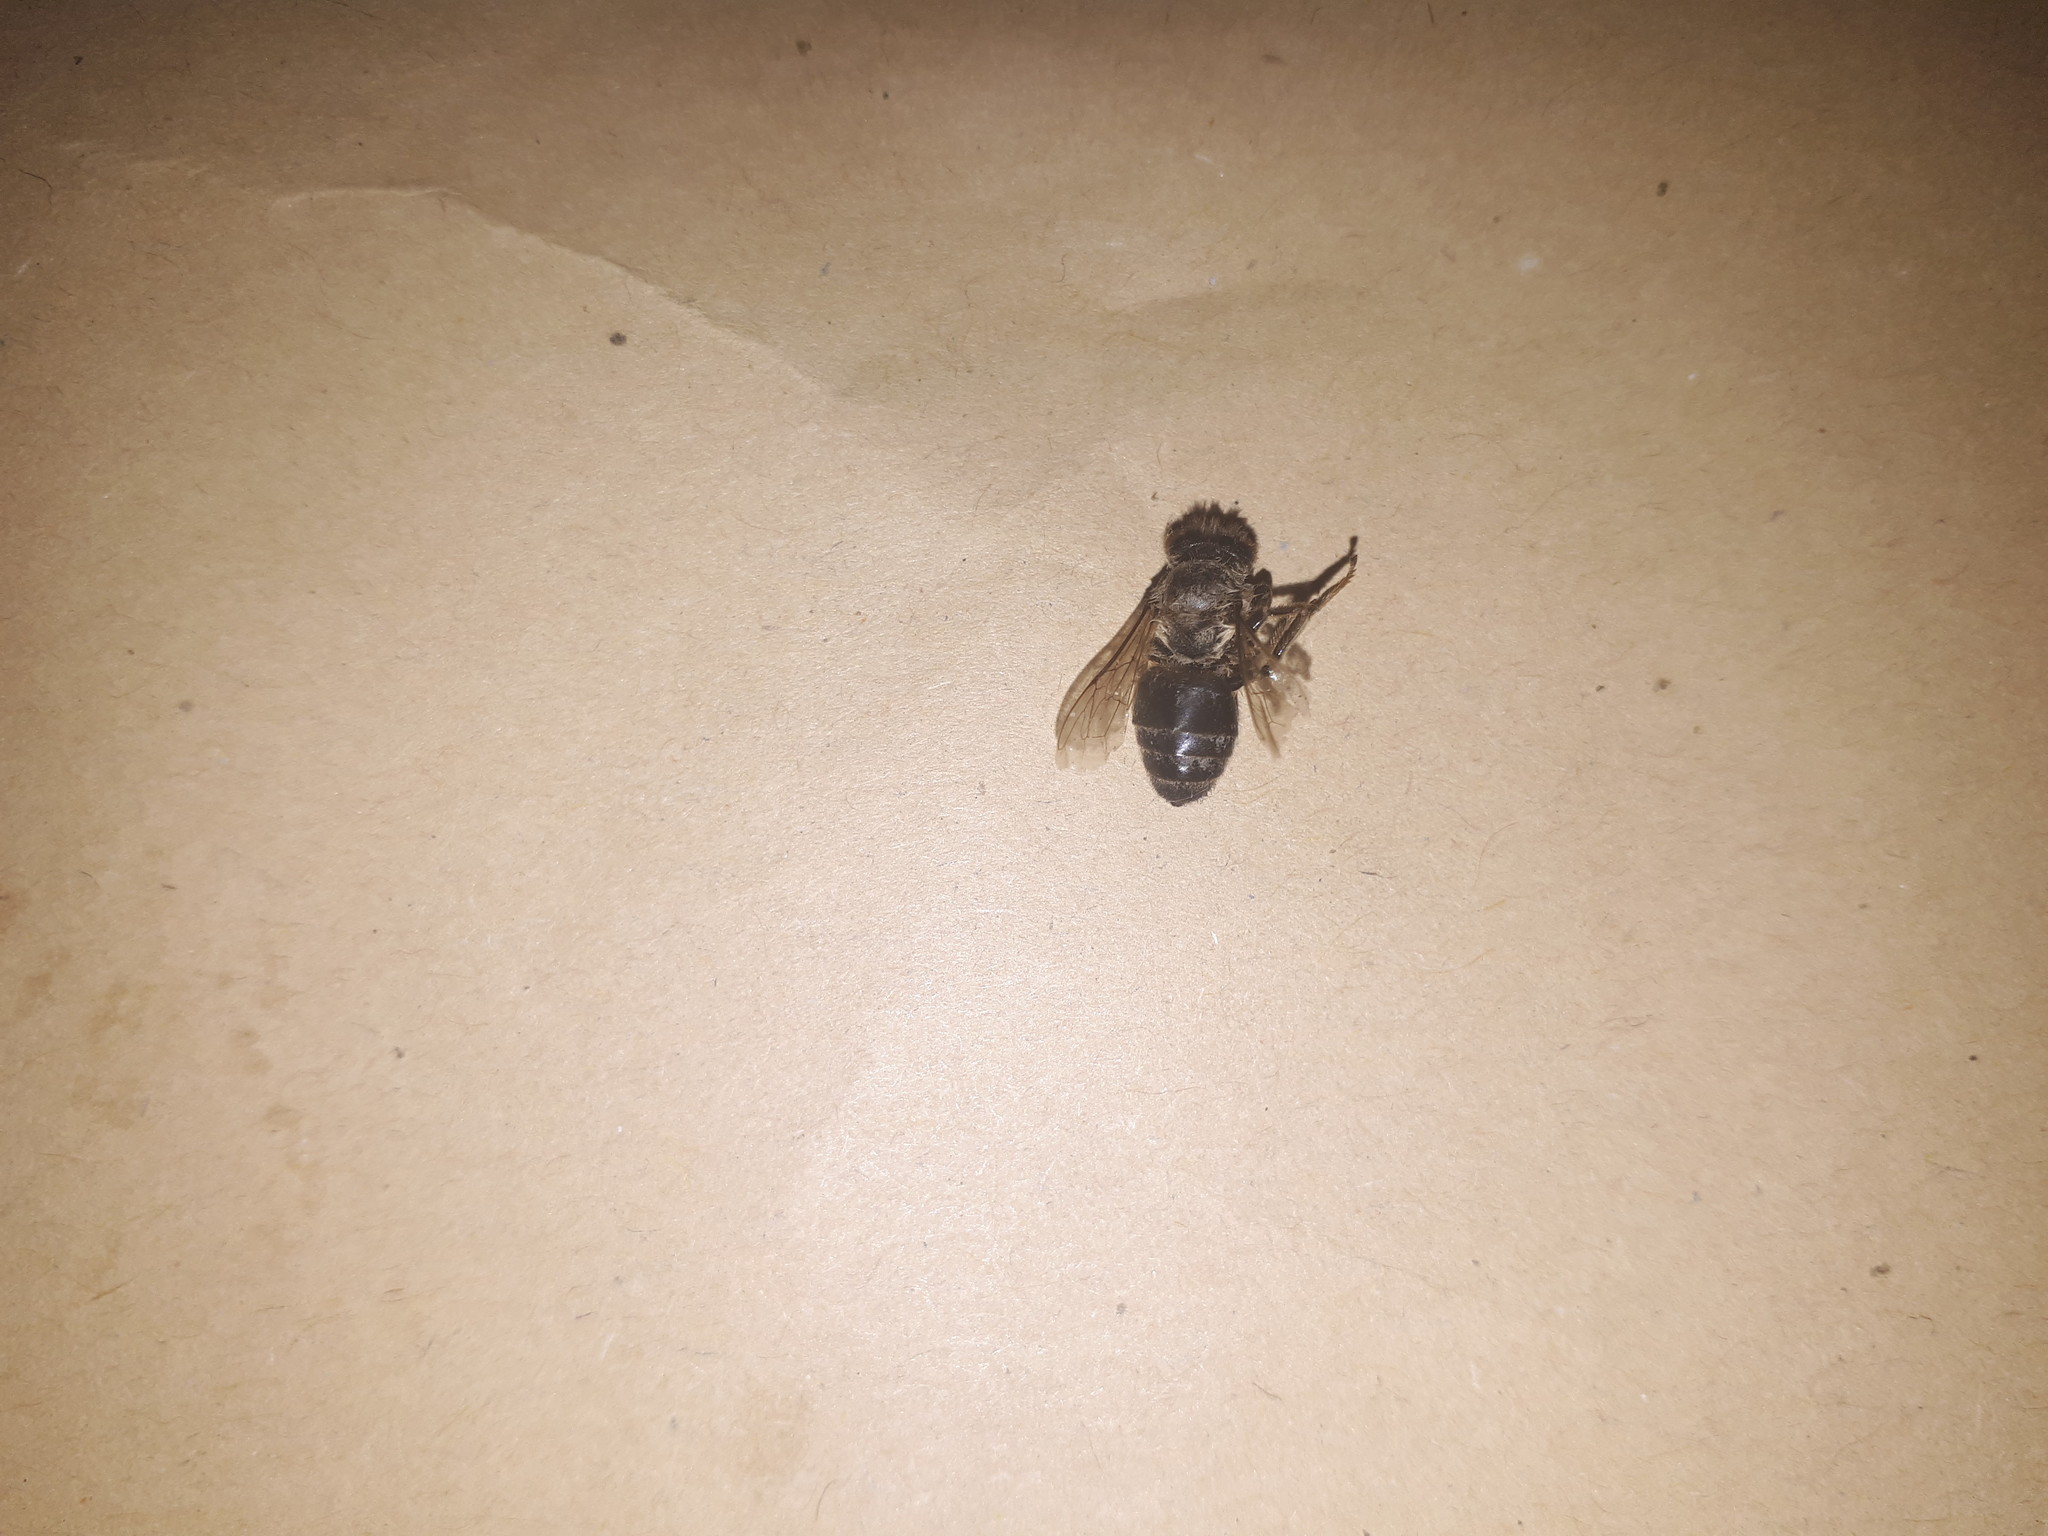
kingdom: Animalia
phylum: Arthropoda
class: Insecta
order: Hymenoptera
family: Apidae
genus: Apis
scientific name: Apis mellifera
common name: Honey bee
